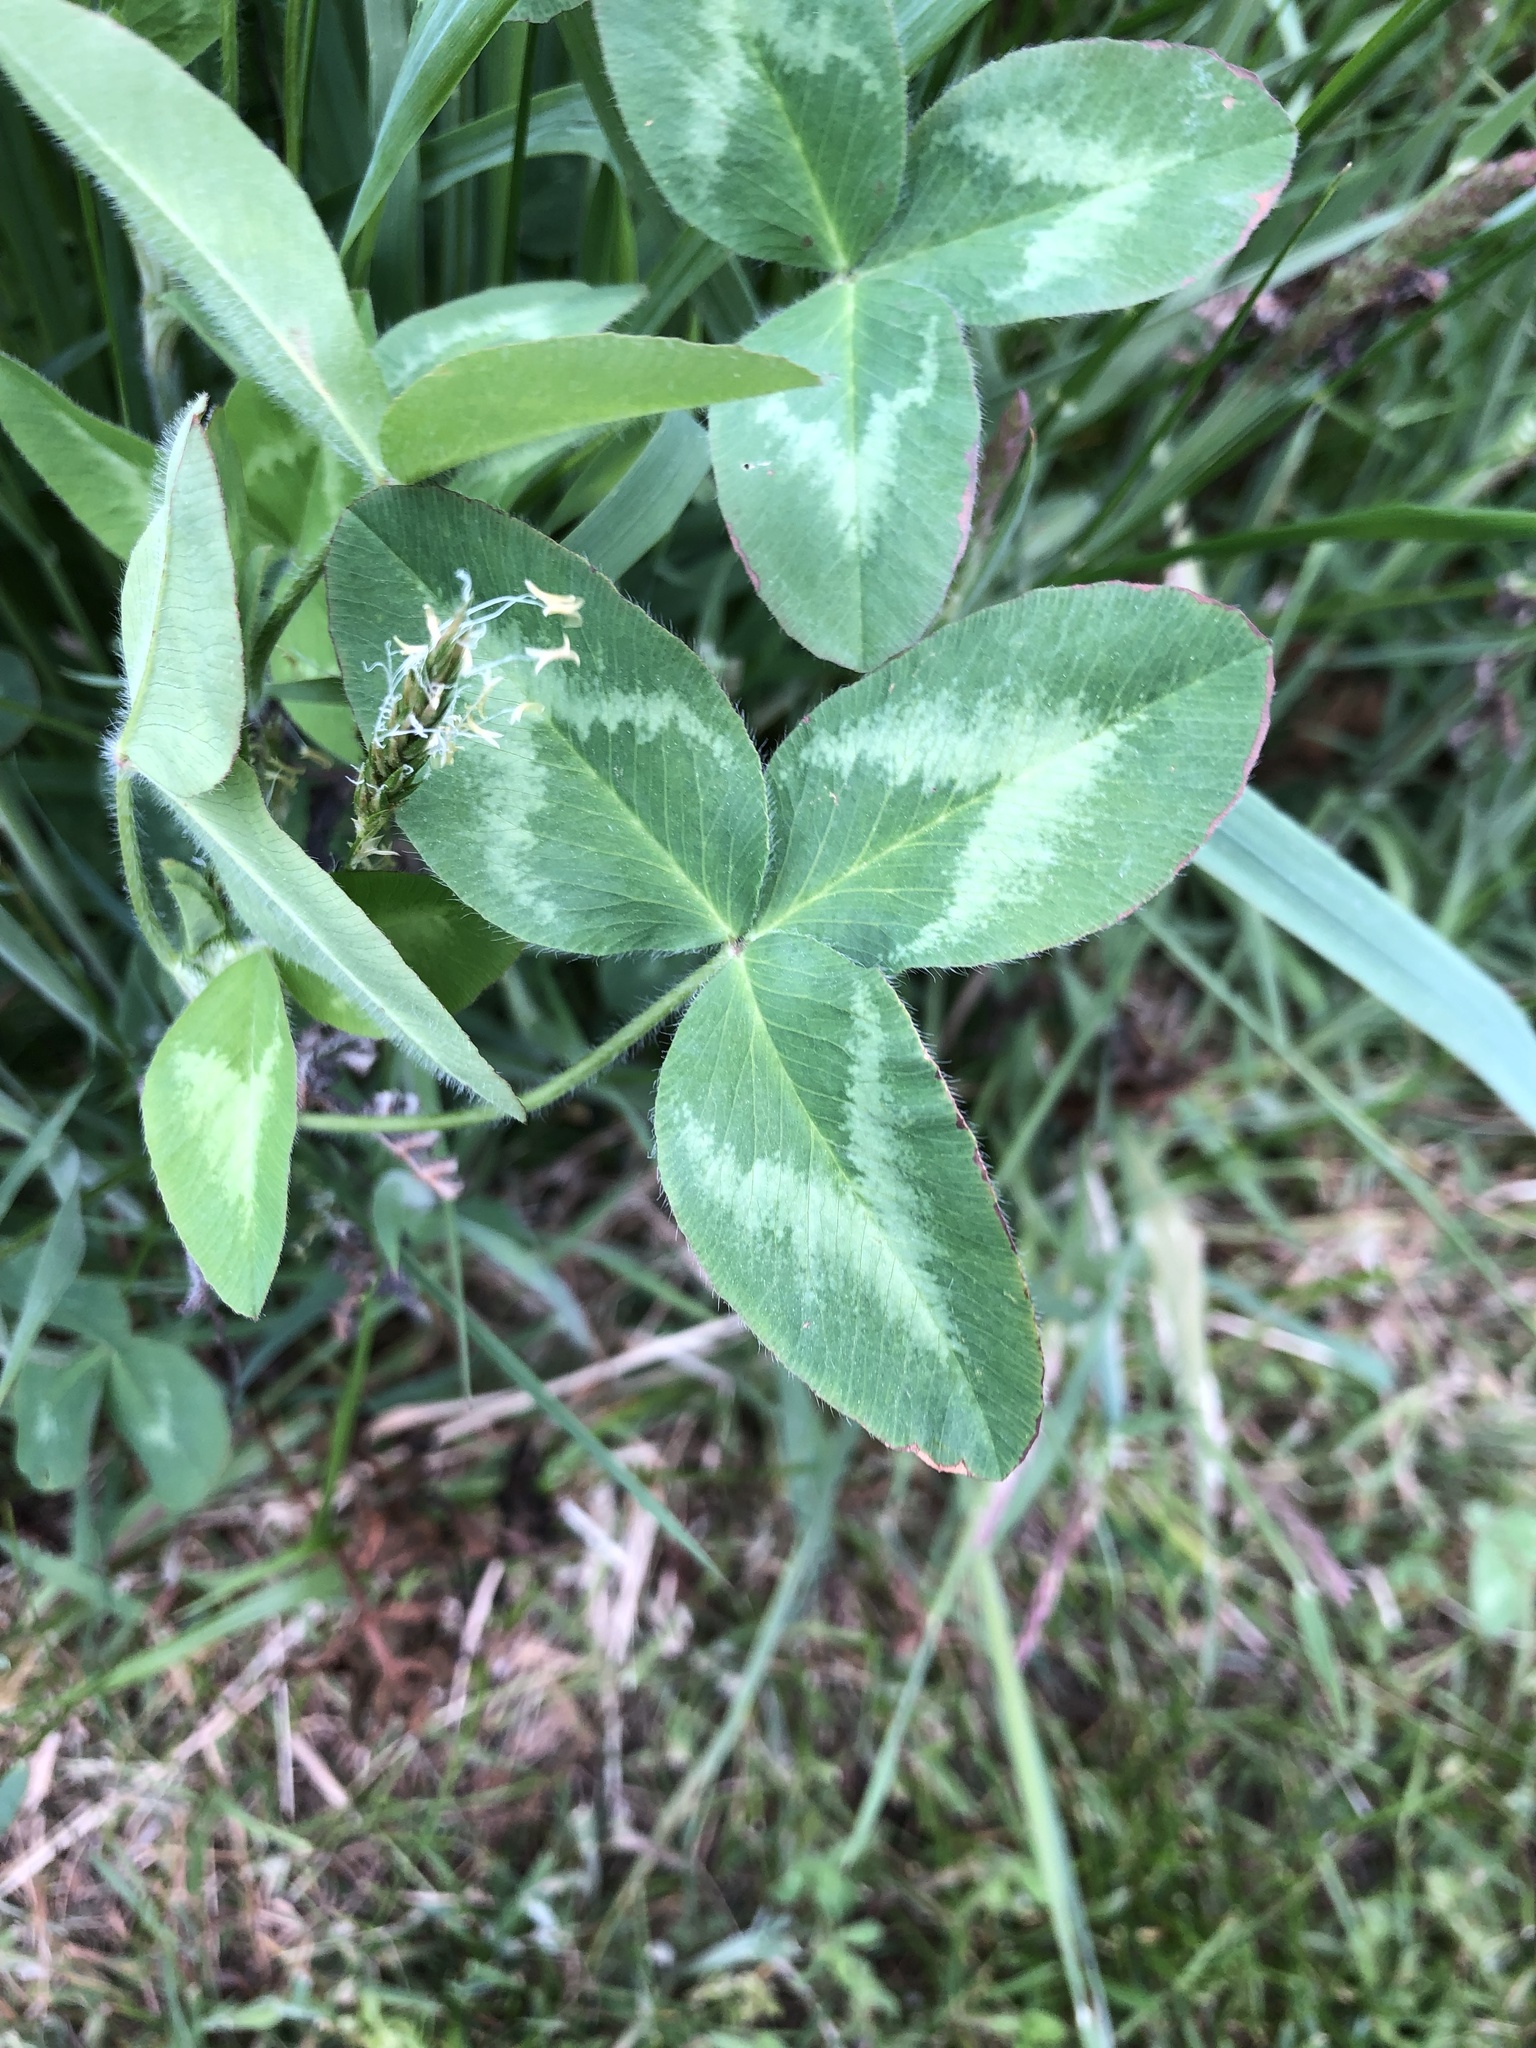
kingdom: Plantae
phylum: Tracheophyta
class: Magnoliopsida
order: Fabales
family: Fabaceae
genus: Trifolium
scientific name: Trifolium pratense
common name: Red clover
